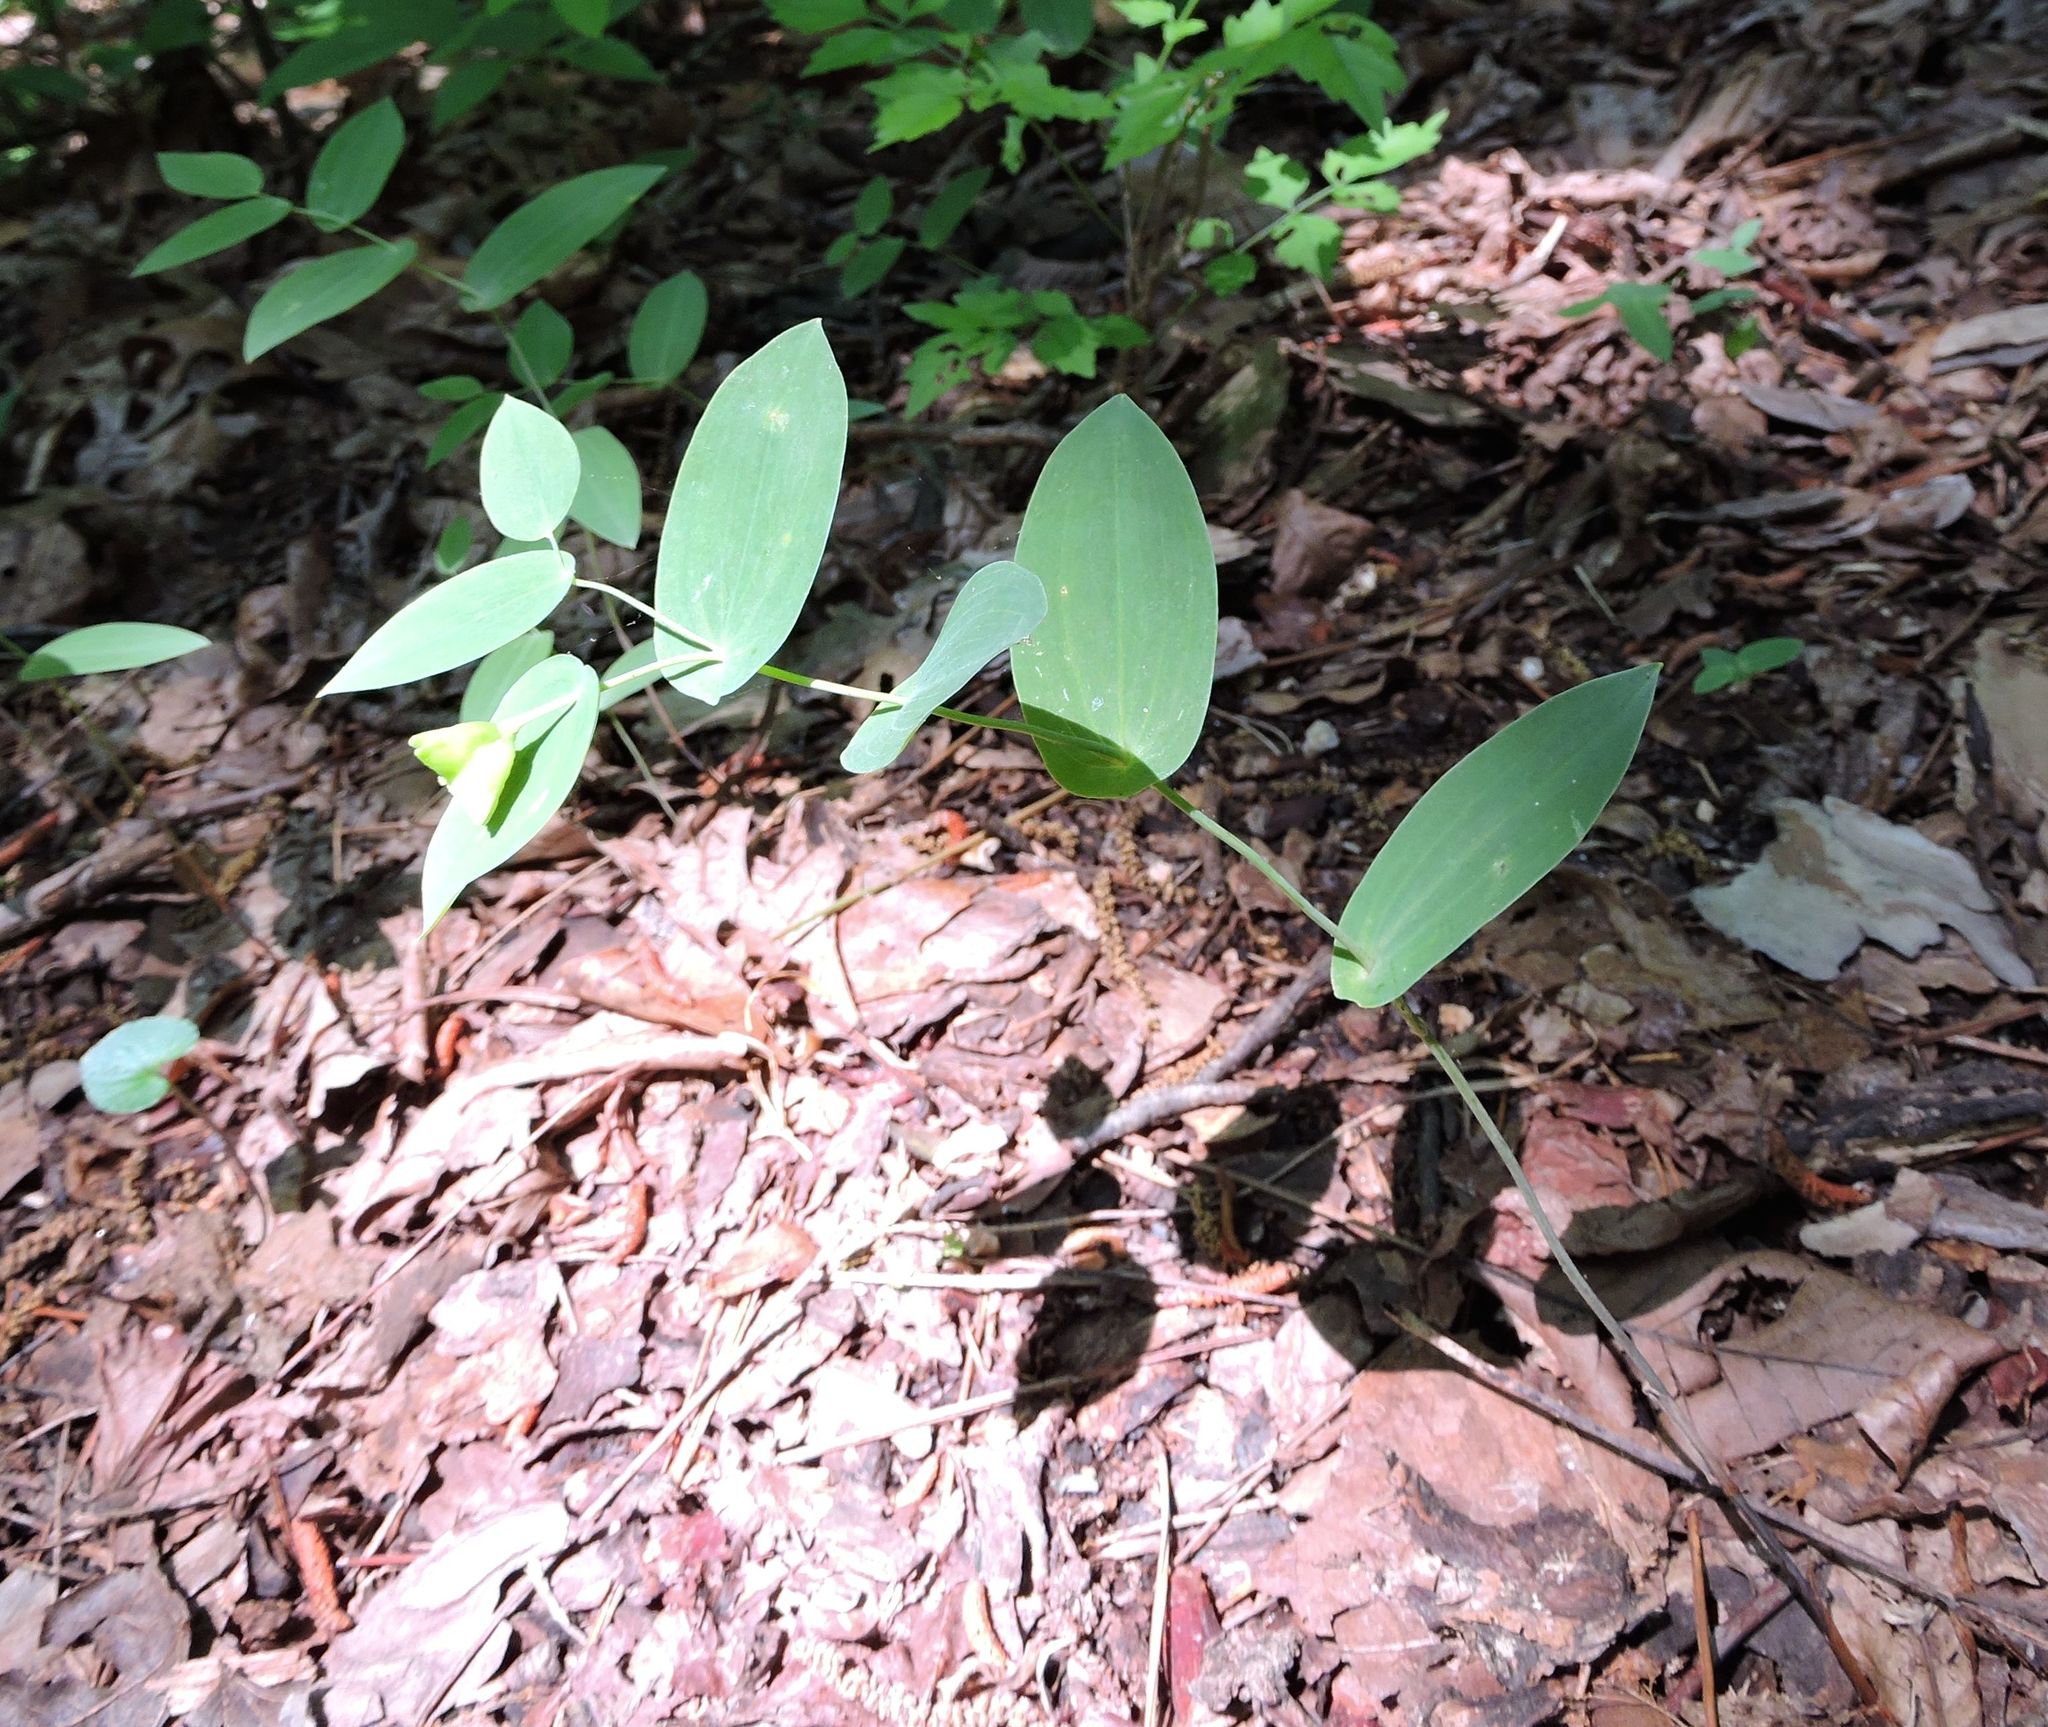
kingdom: Plantae
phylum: Tracheophyta
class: Liliopsida
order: Liliales
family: Colchicaceae
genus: Uvularia
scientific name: Uvularia perfoliata
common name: Perfoliate bellwort
